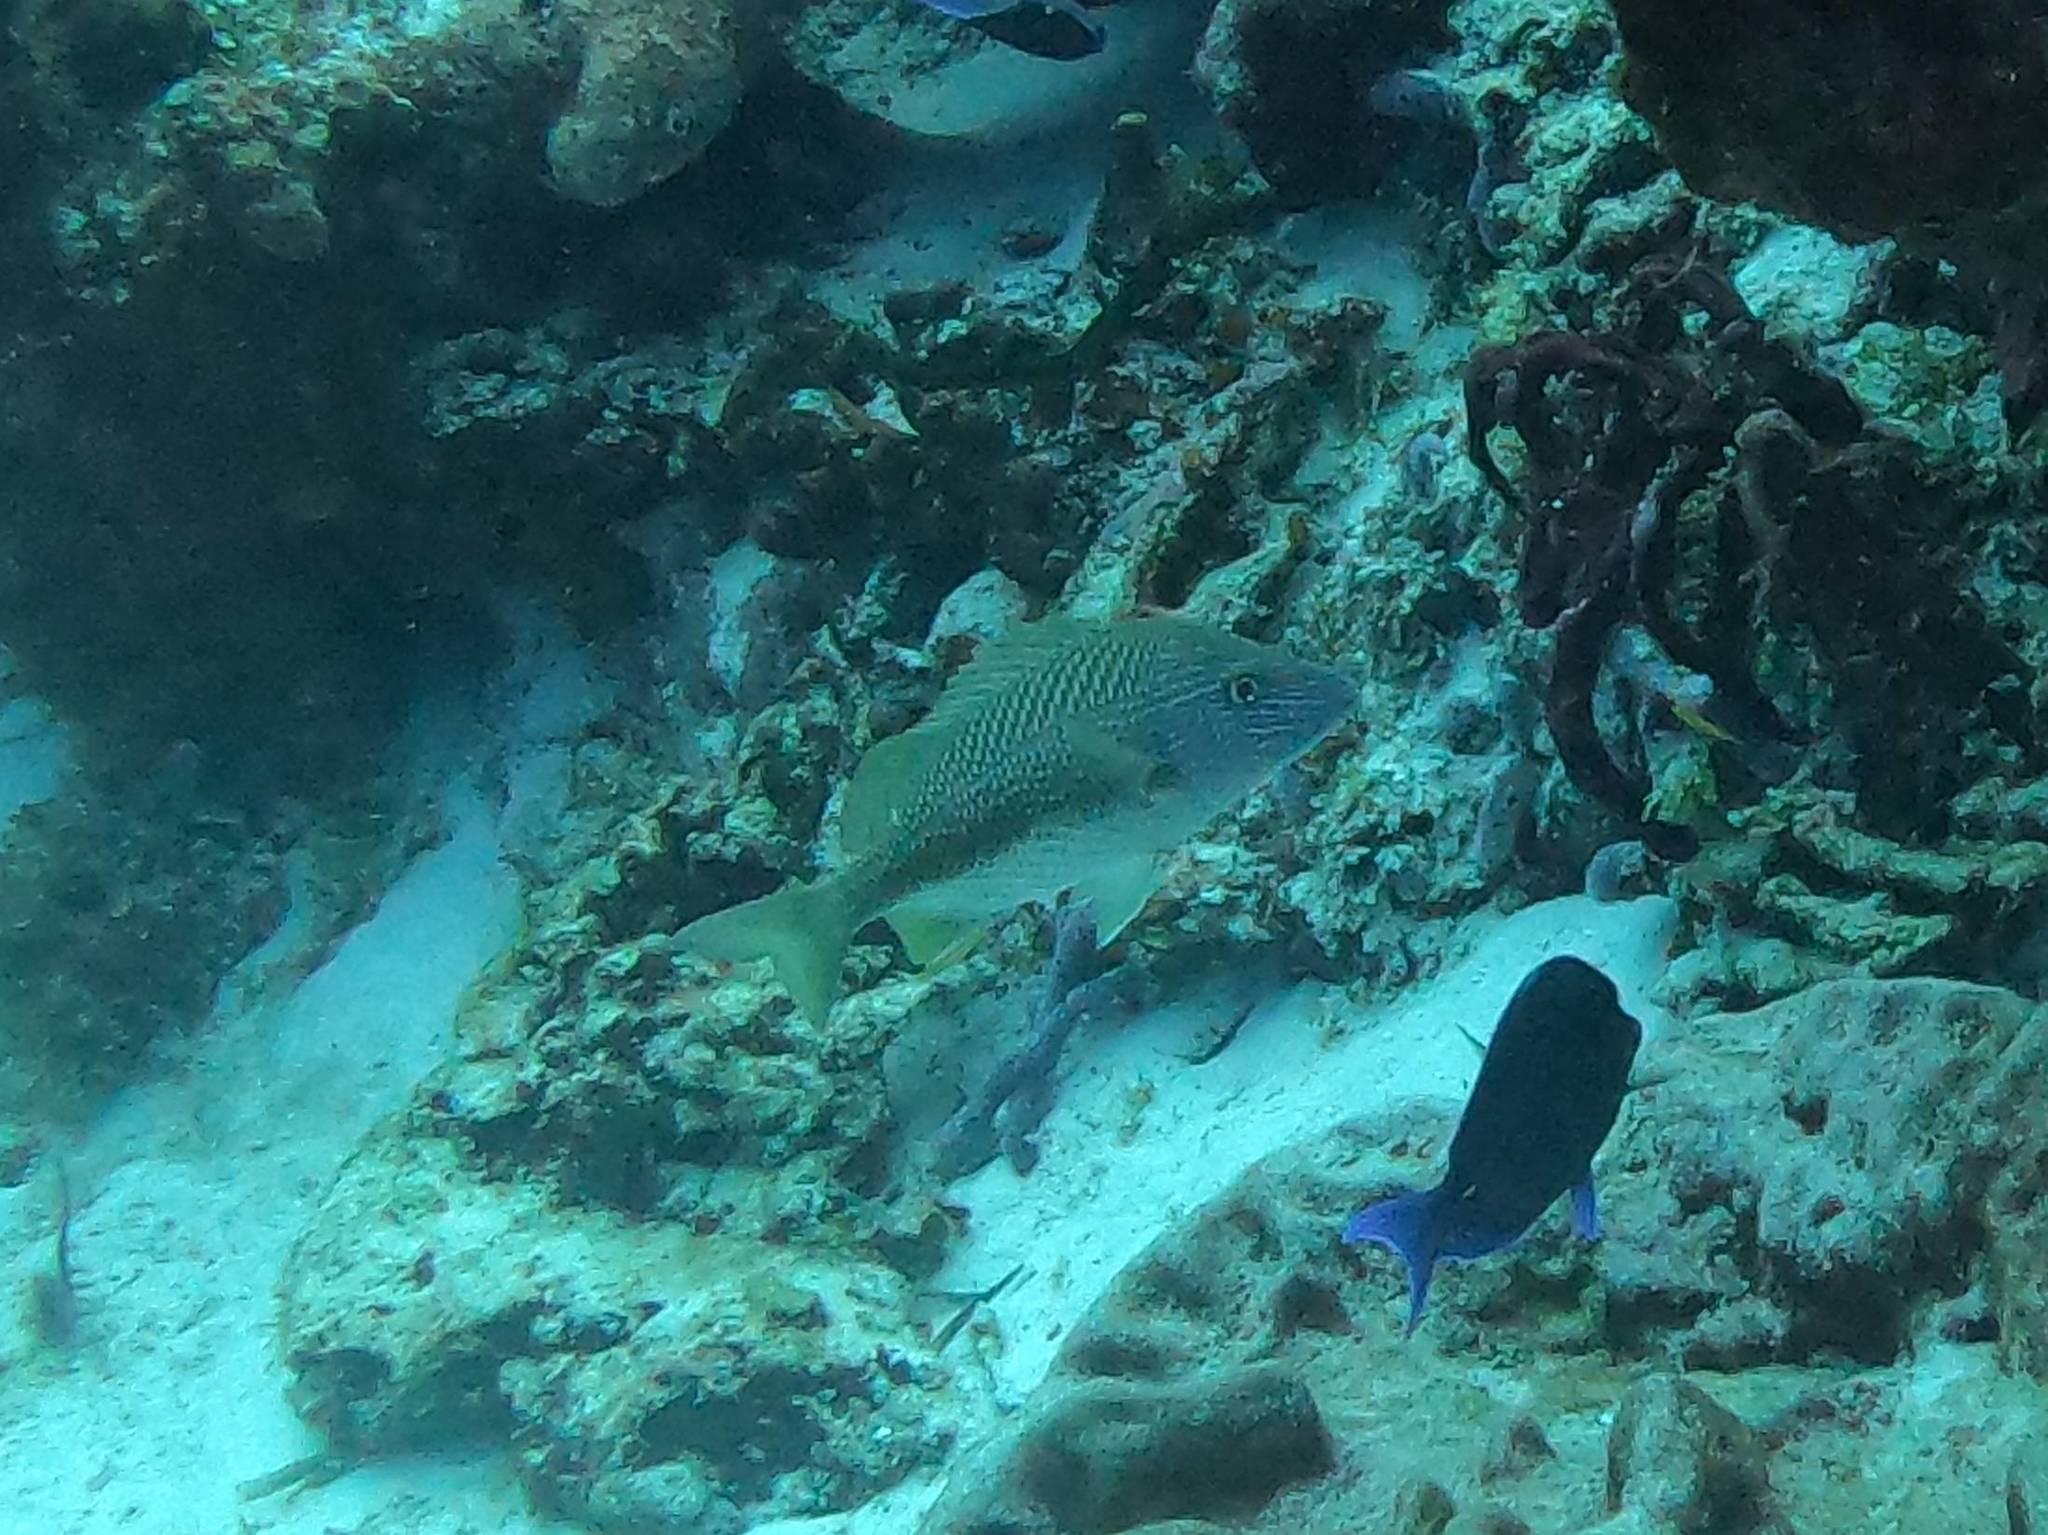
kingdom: Animalia
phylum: Chordata
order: Perciformes
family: Haemulidae
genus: Haemulon
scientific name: Haemulon plumierii
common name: White grunt
